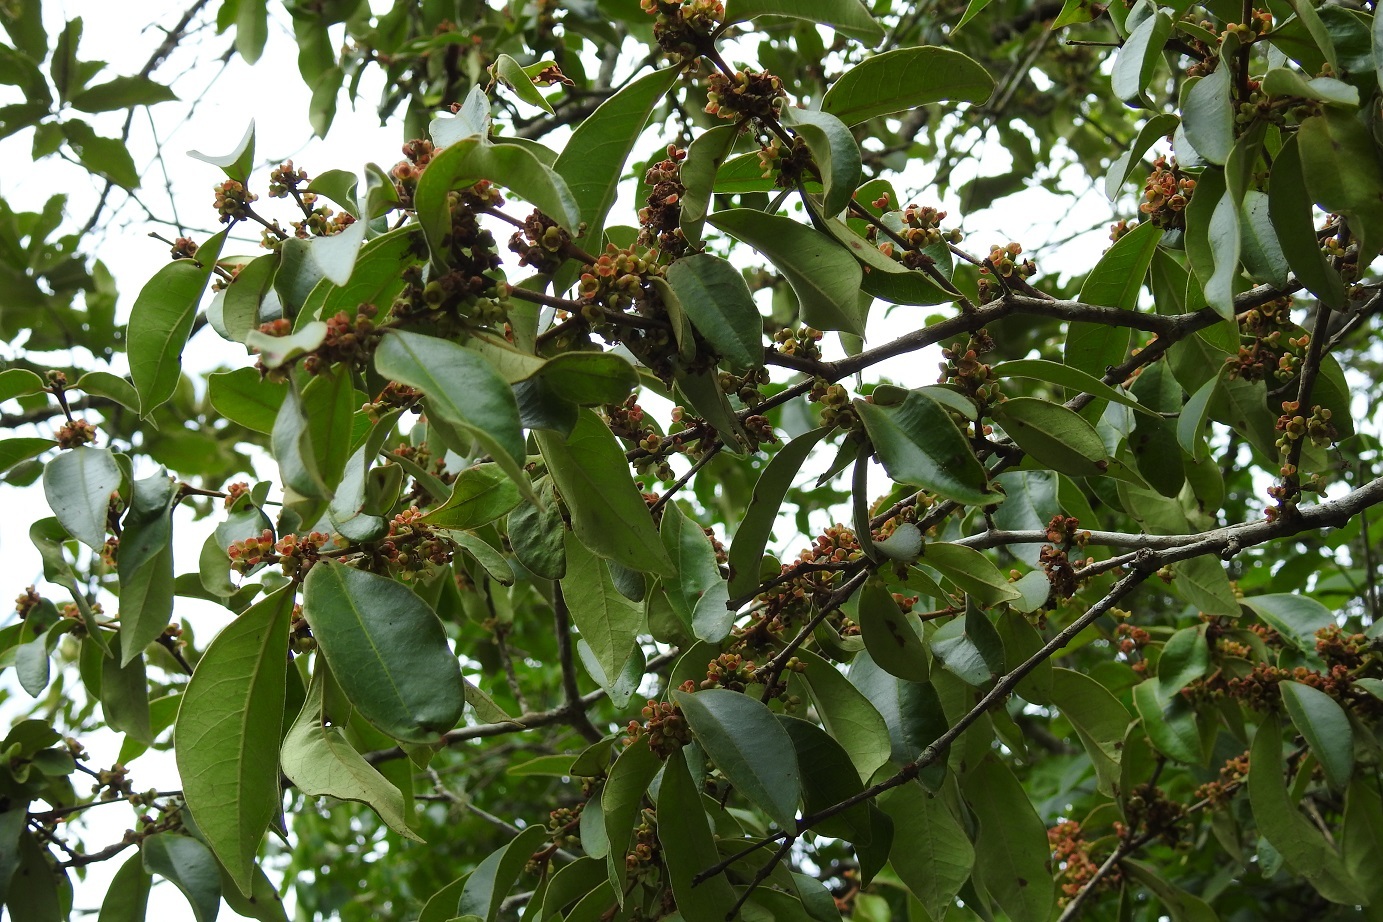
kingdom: Plantae
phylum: Tracheophyta
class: Magnoliopsida
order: Myrtales
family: Myrtaceae
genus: Eugenia
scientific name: Eugenia capuli
